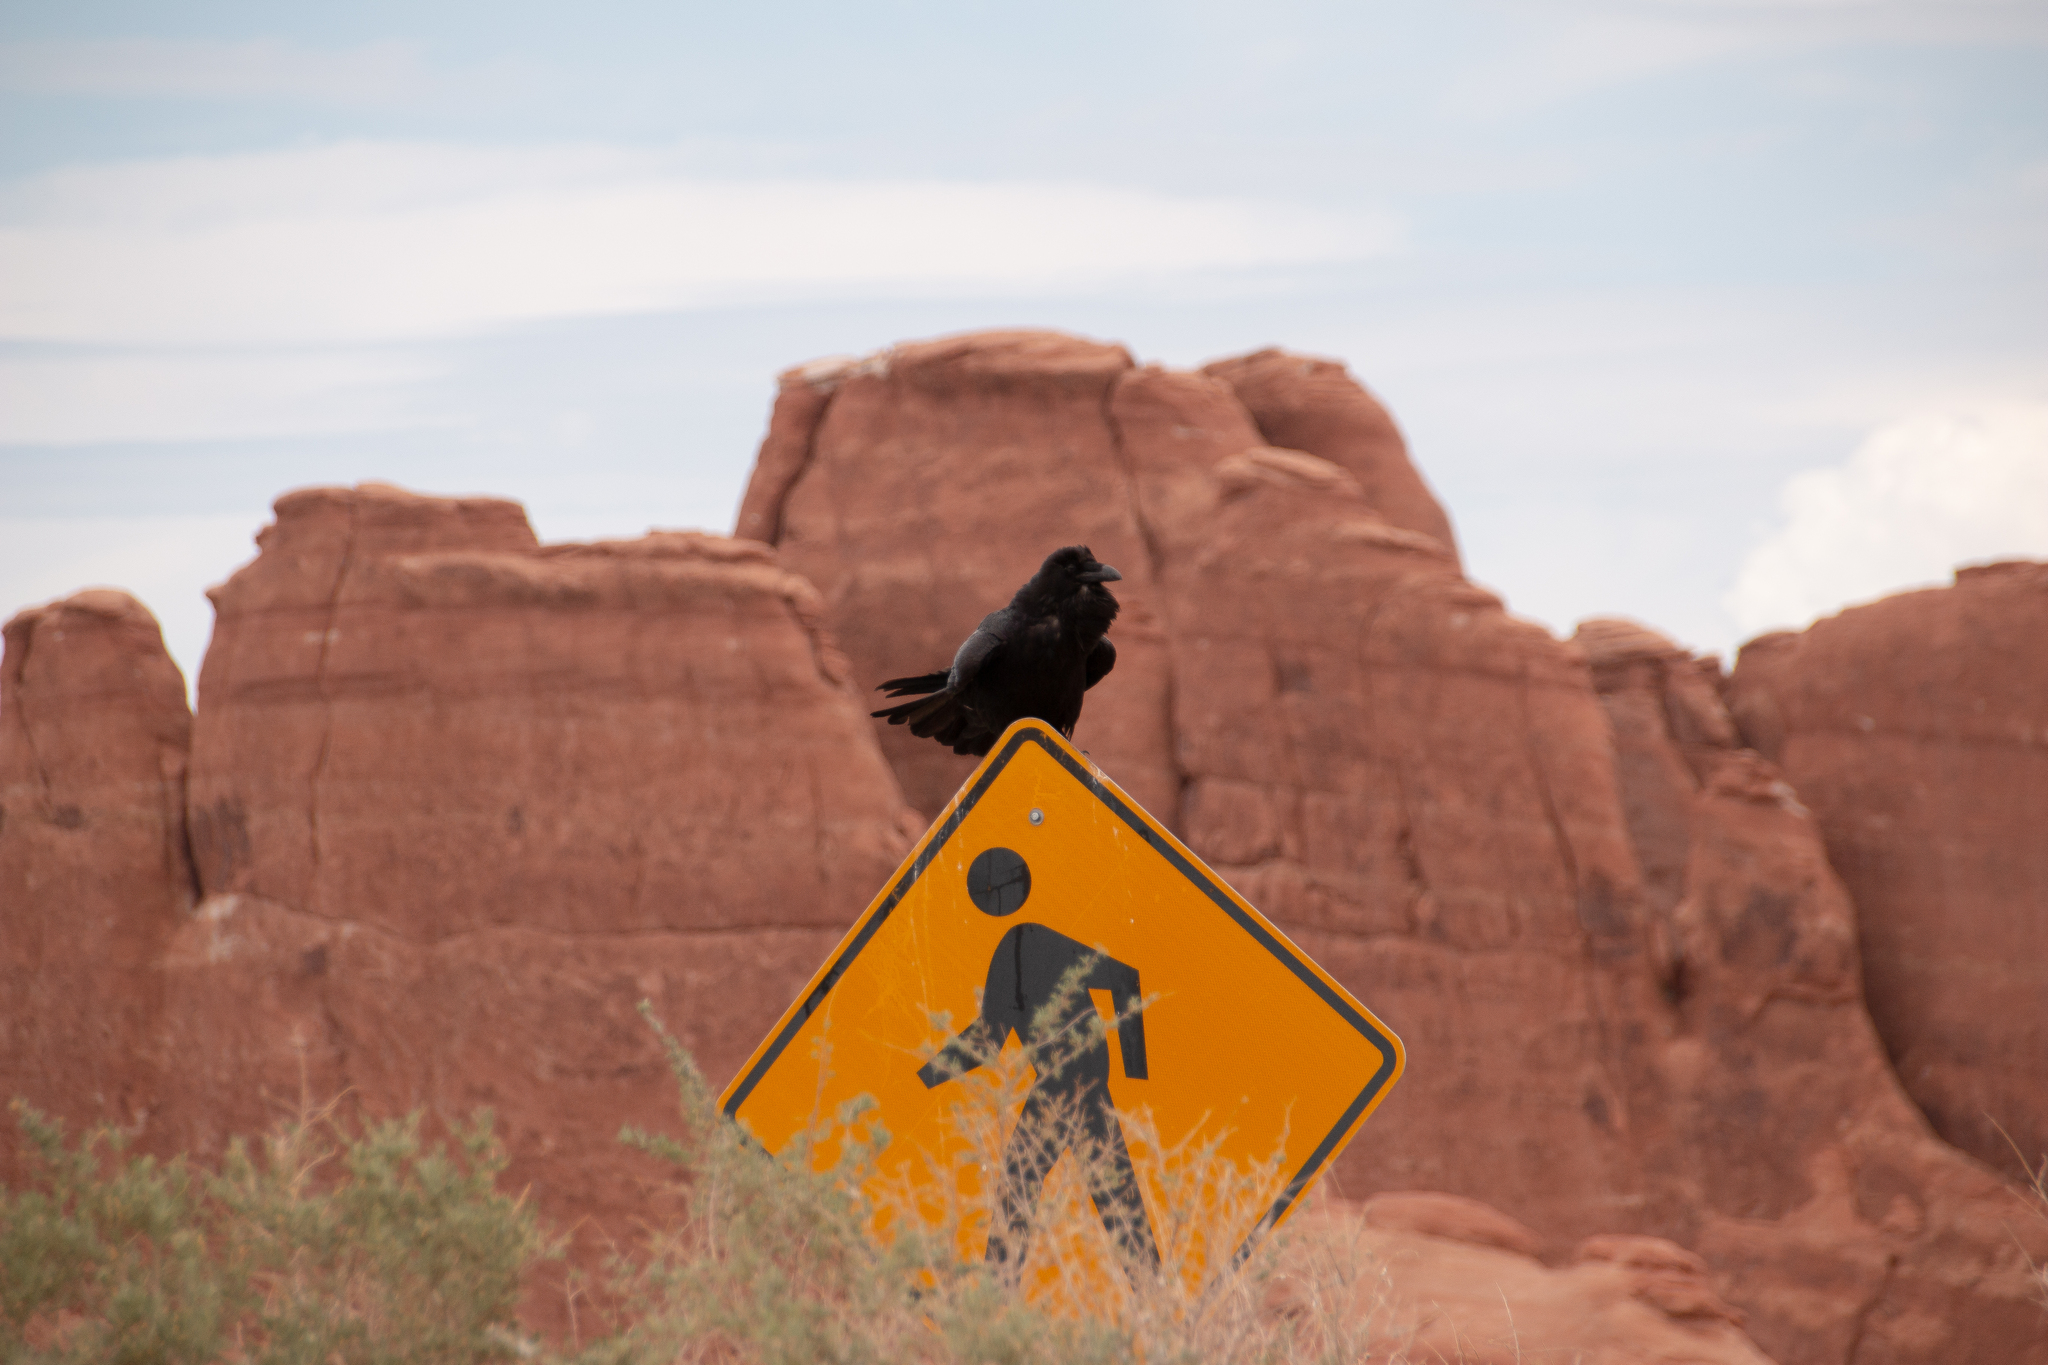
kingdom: Animalia
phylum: Chordata
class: Aves
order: Passeriformes
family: Corvidae
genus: Corvus
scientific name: Corvus corax
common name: Common raven
